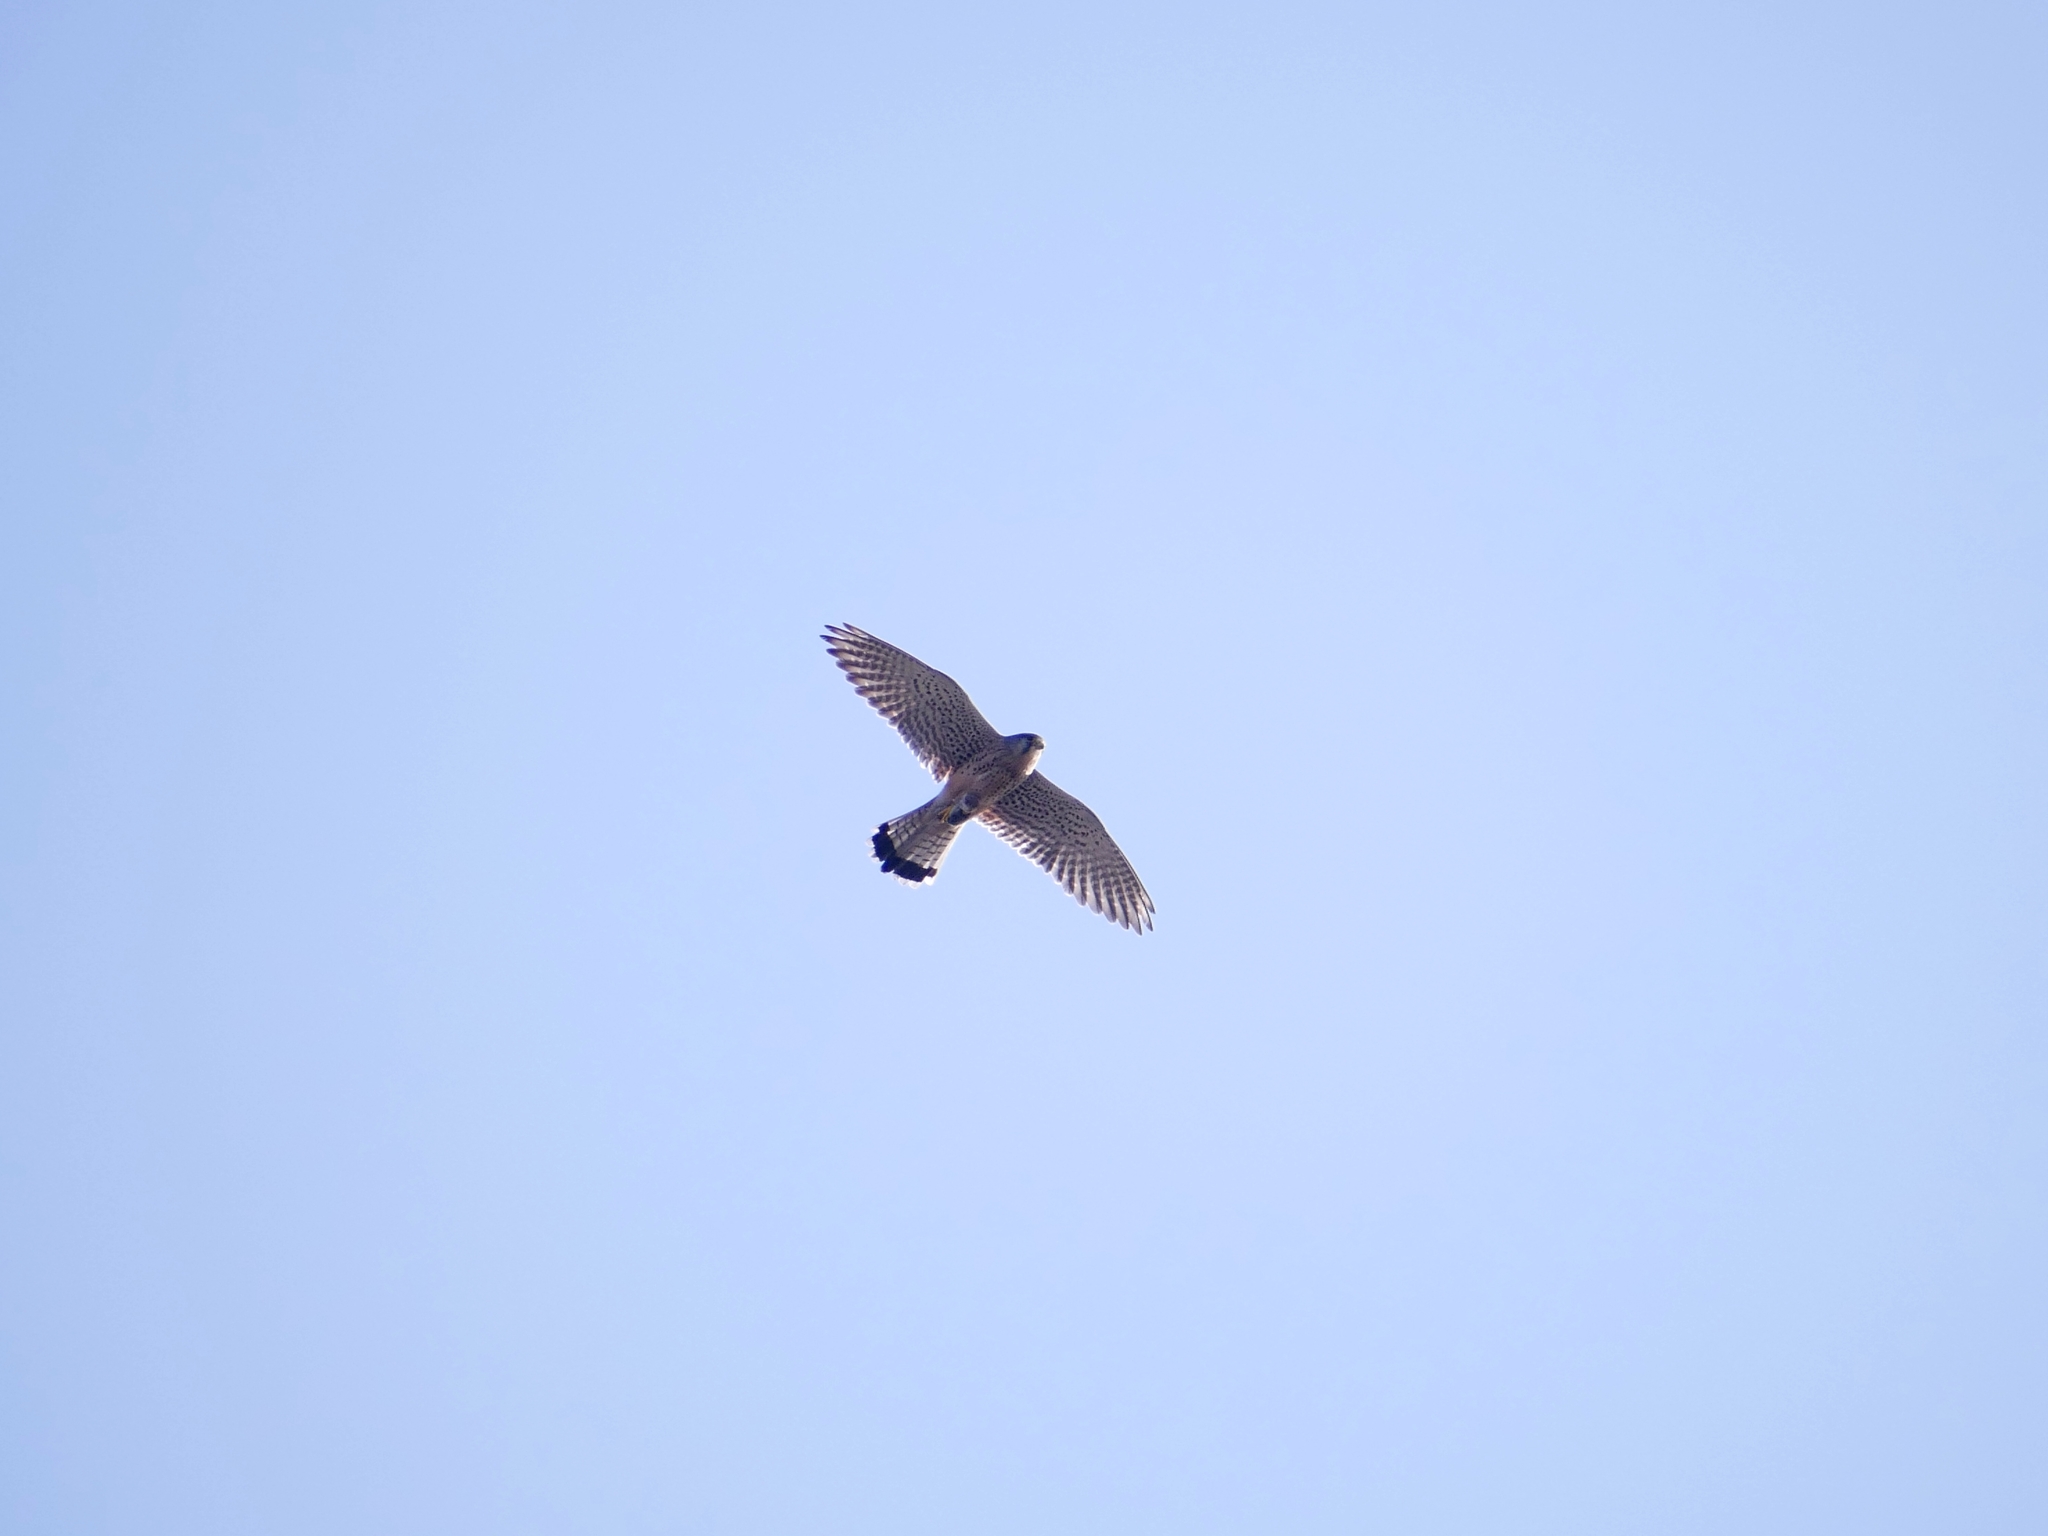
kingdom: Animalia
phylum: Chordata
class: Aves
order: Falconiformes
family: Falconidae
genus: Falco
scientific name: Falco tinnunculus
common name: Common kestrel
